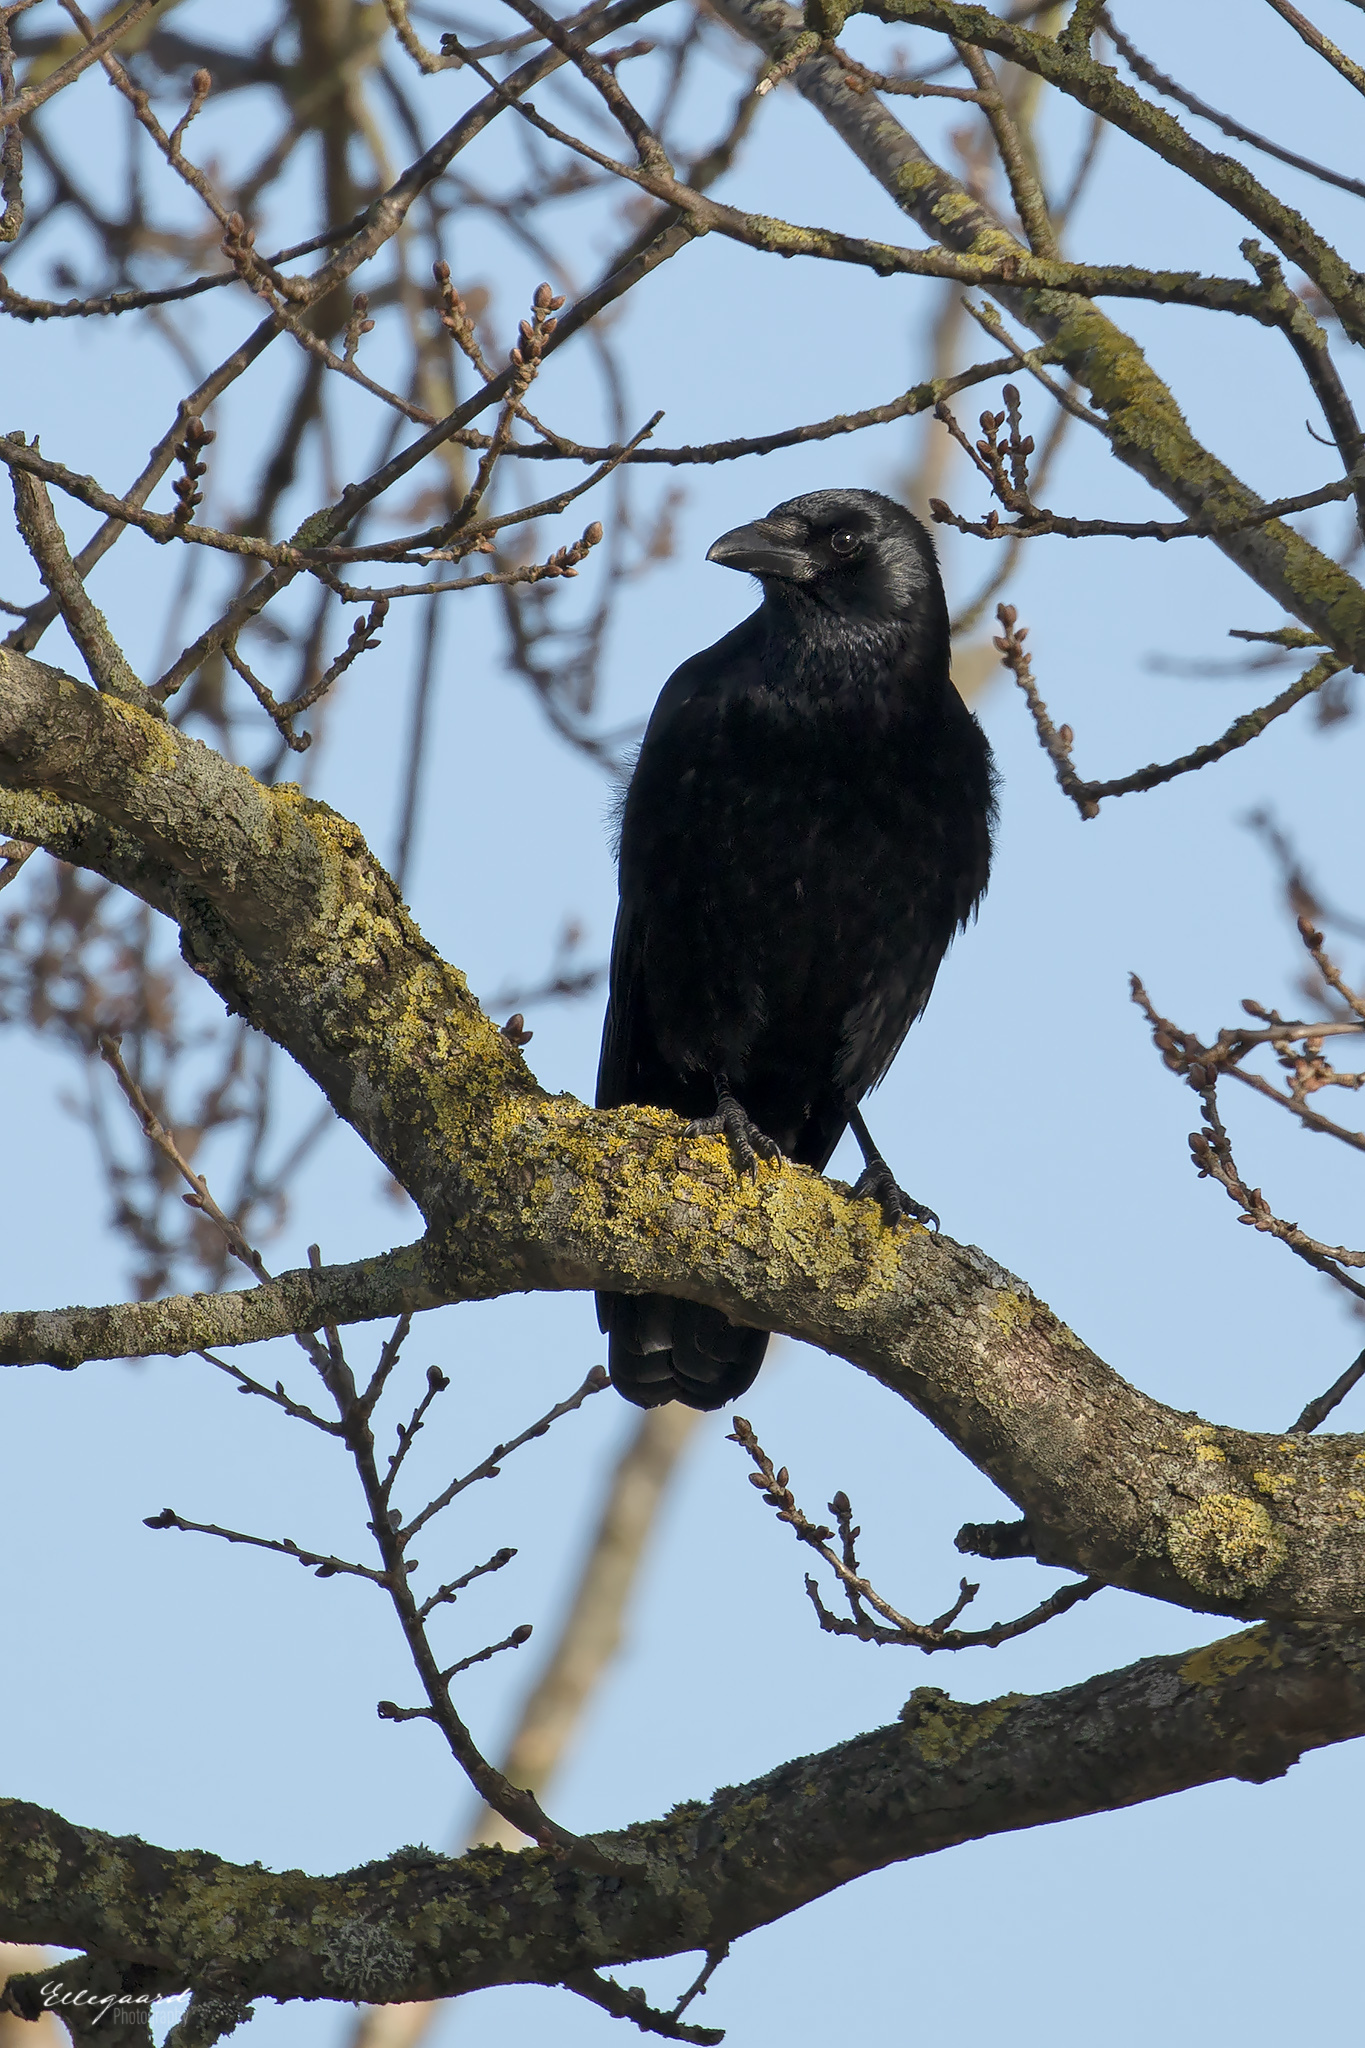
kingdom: Animalia
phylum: Chordata
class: Aves
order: Passeriformes
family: Corvidae
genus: Corvus
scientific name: Corvus corone
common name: Carrion crow
